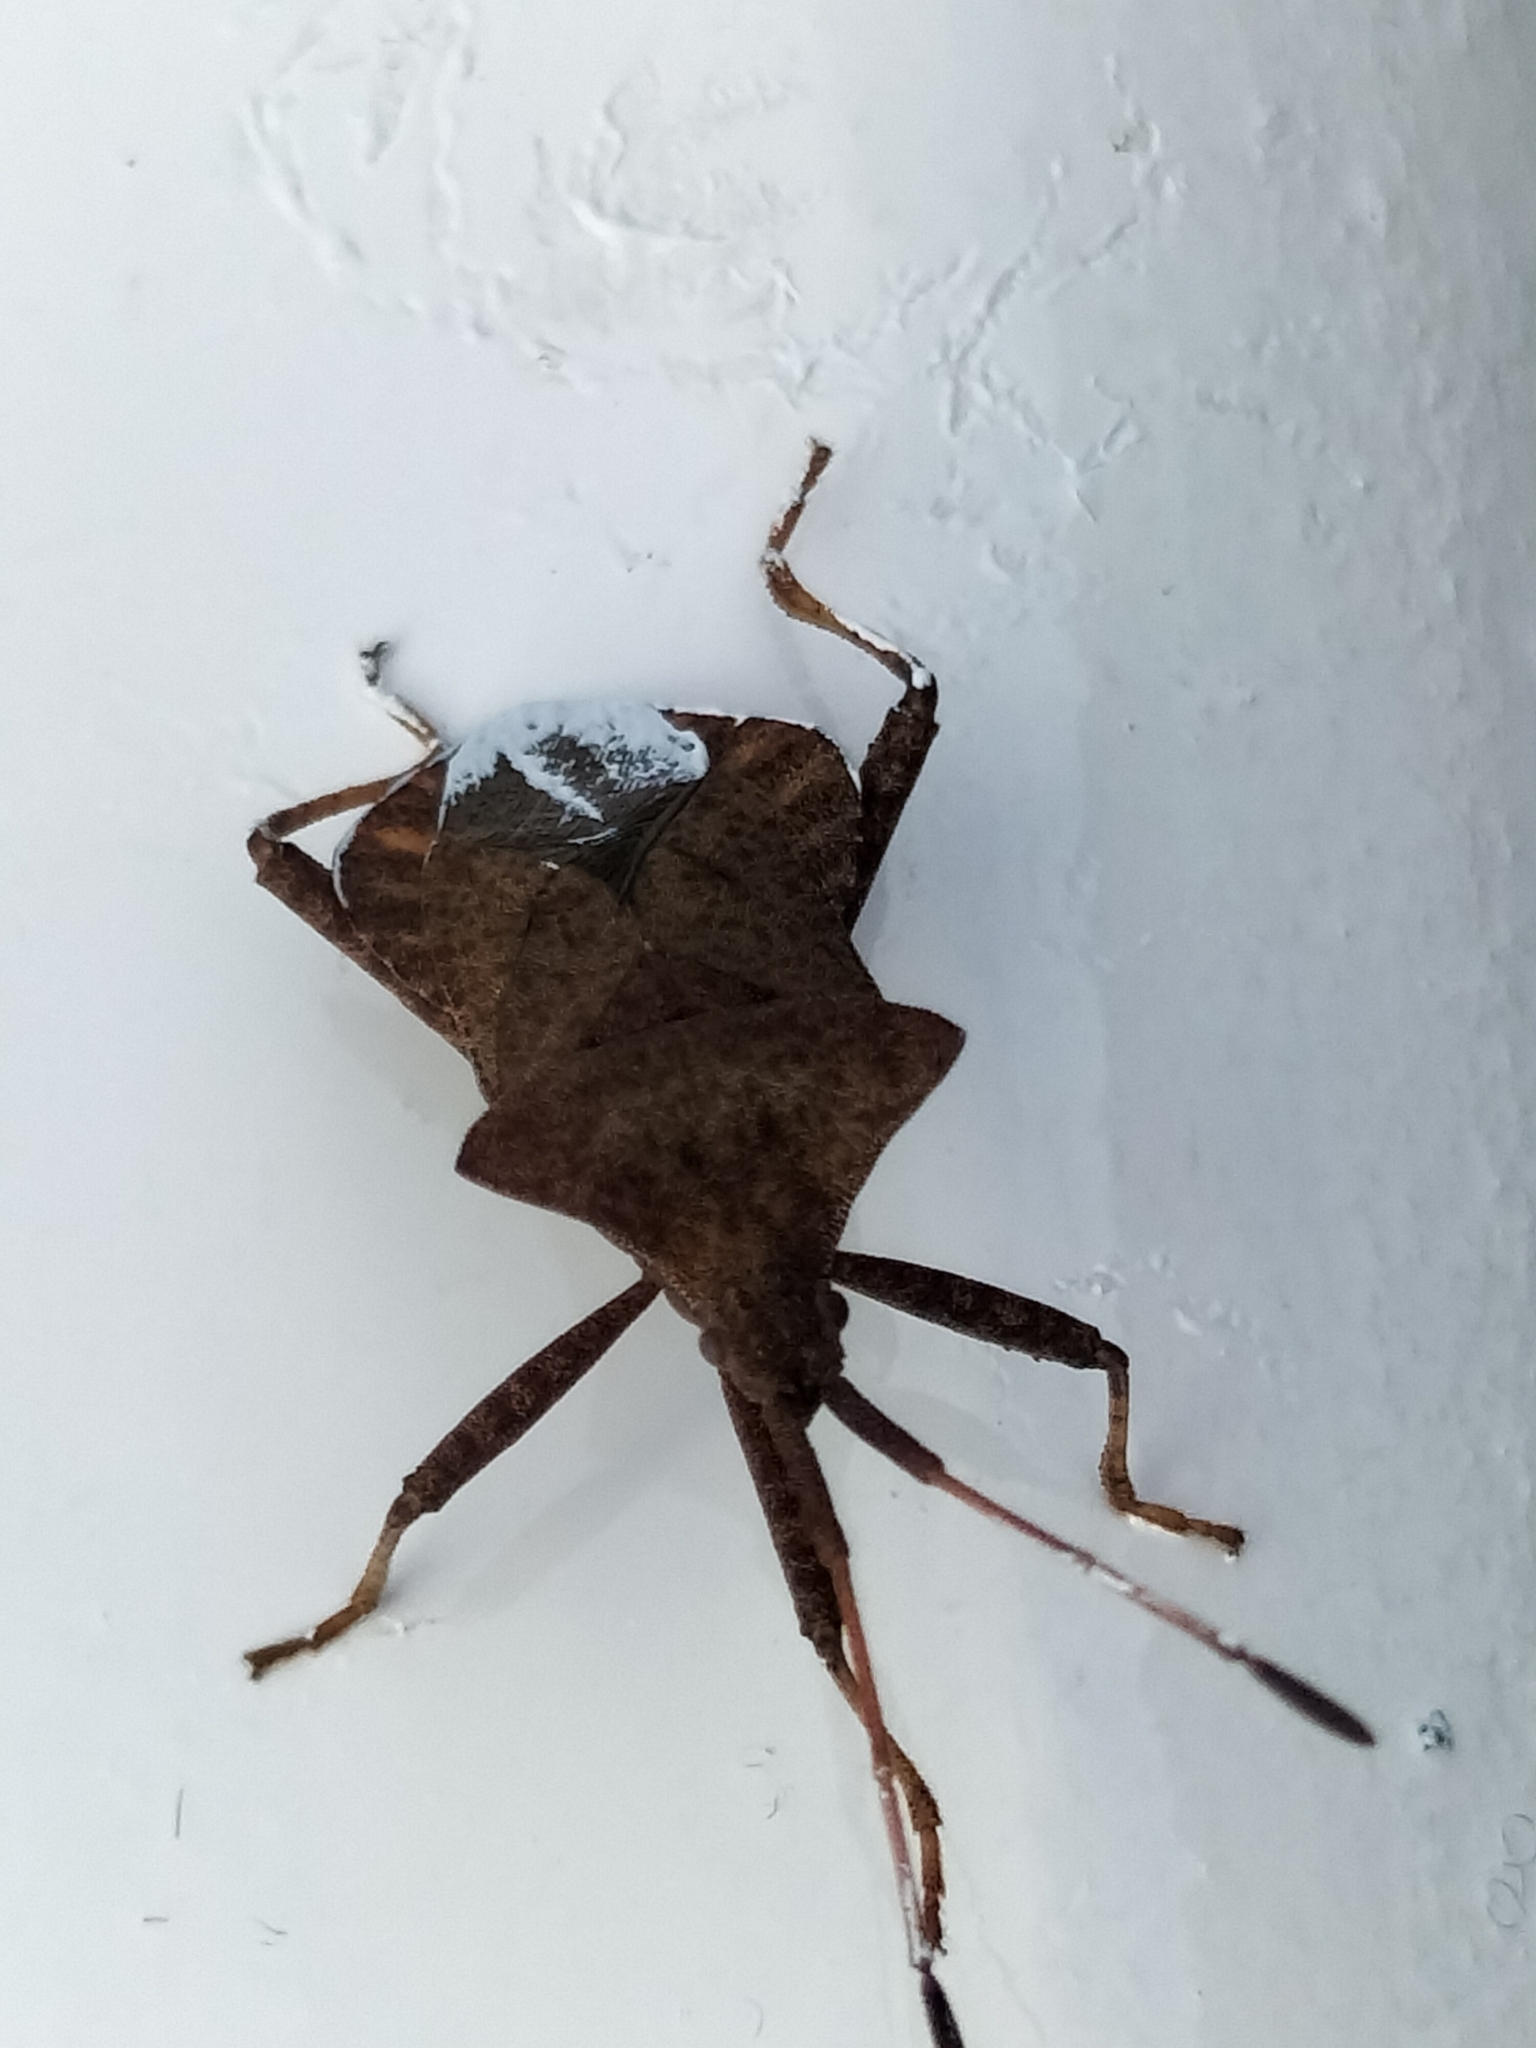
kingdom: Animalia
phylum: Arthropoda
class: Insecta
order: Hemiptera
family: Coreidae
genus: Coreus
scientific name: Coreus marginatus
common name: Dock bug
